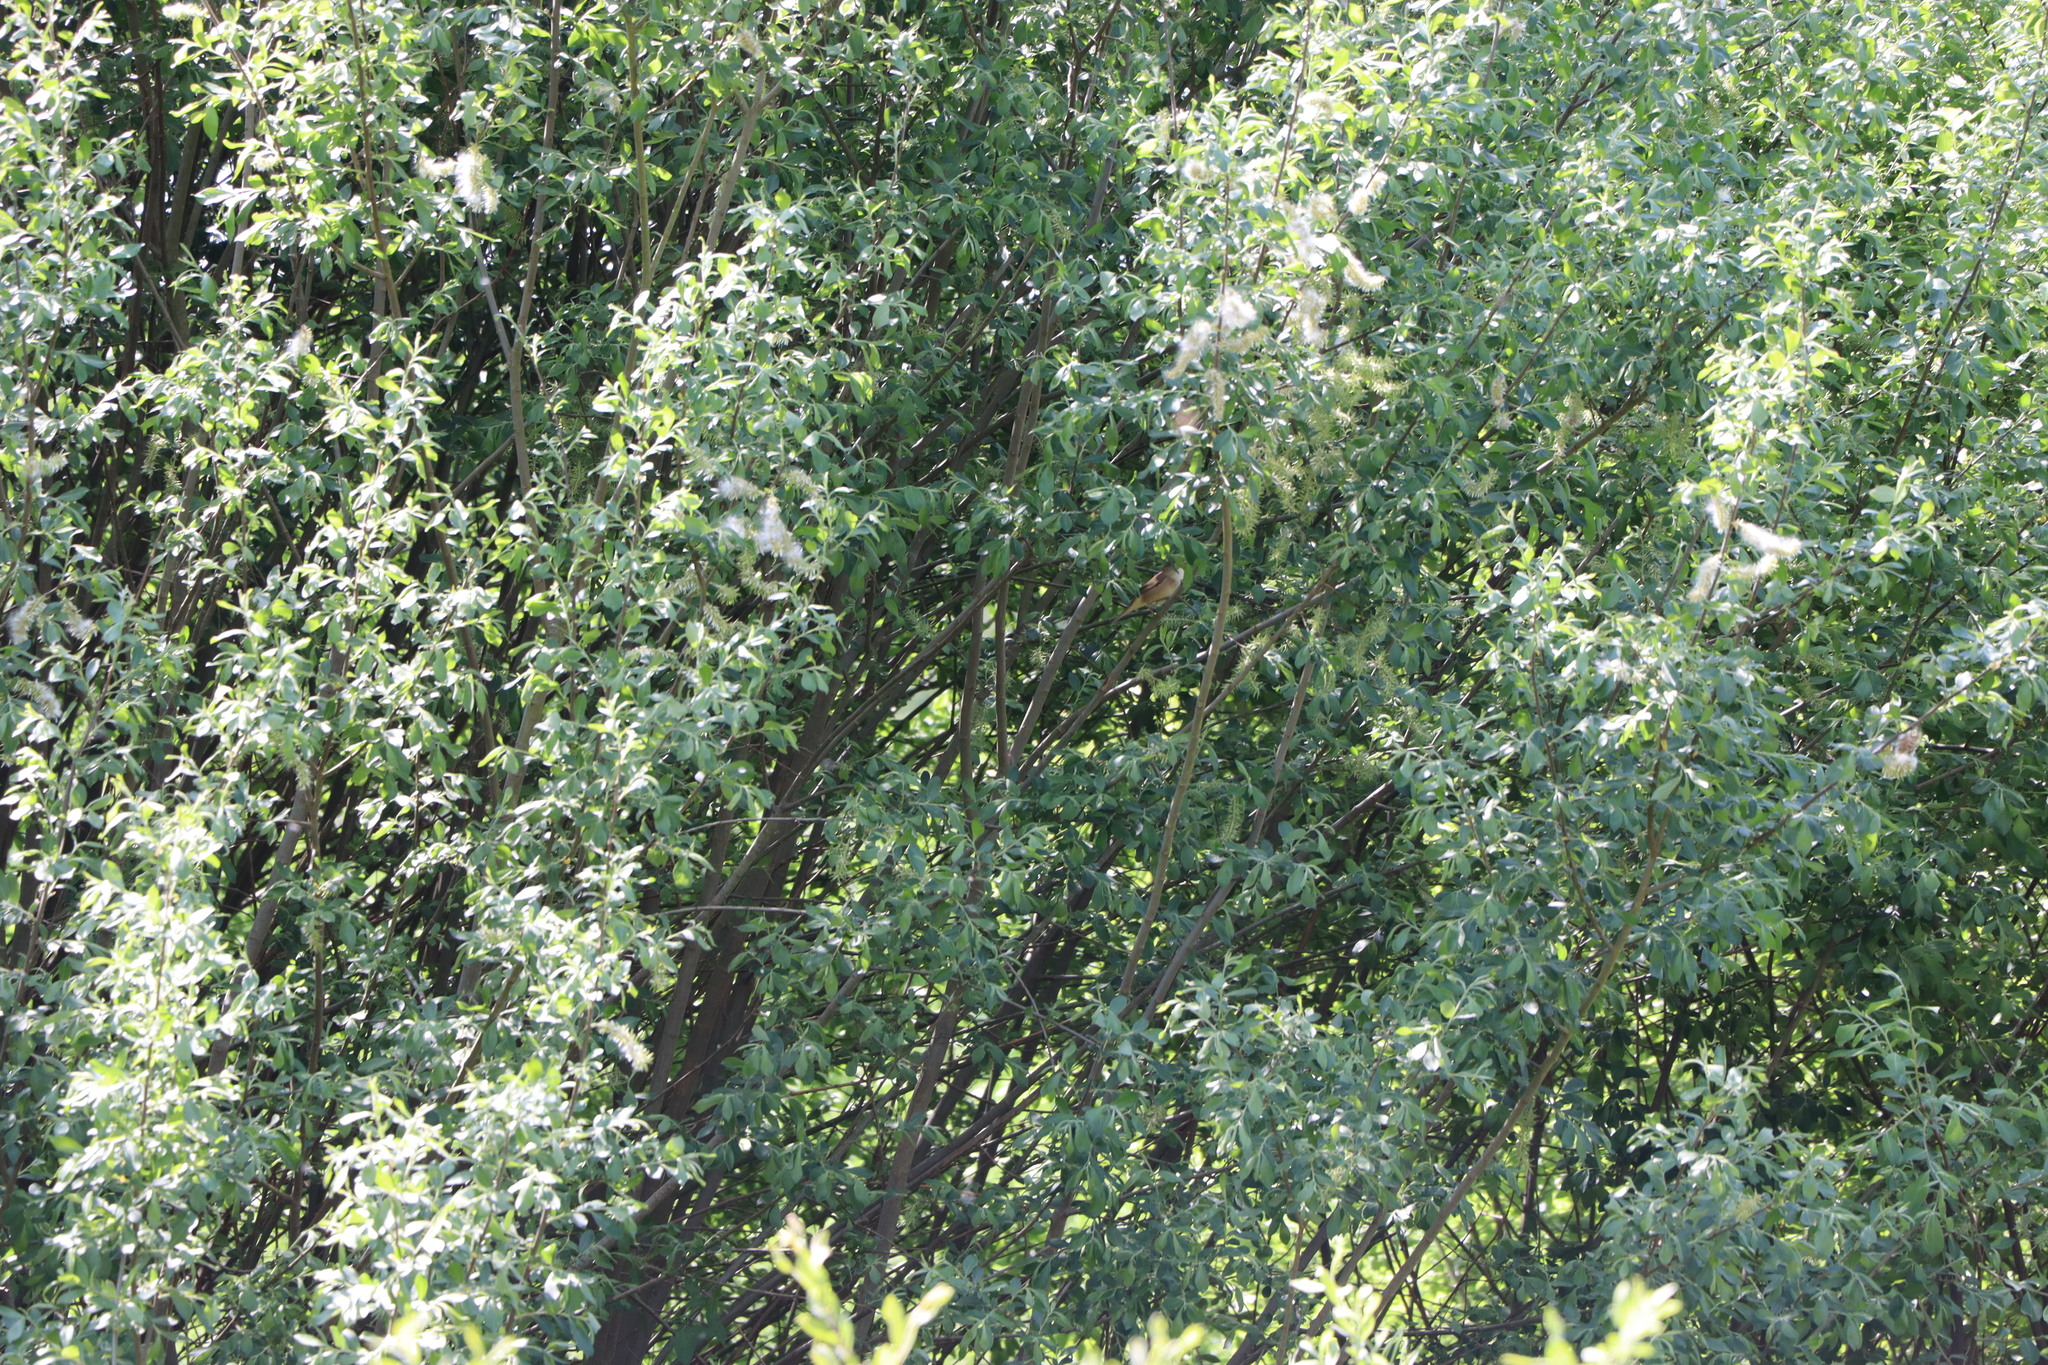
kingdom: Animalia
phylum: Chordata
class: Aves
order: Passeriformes
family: Sylviidae
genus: Sylvia
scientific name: Sylvia communis
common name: Common whitethroat
